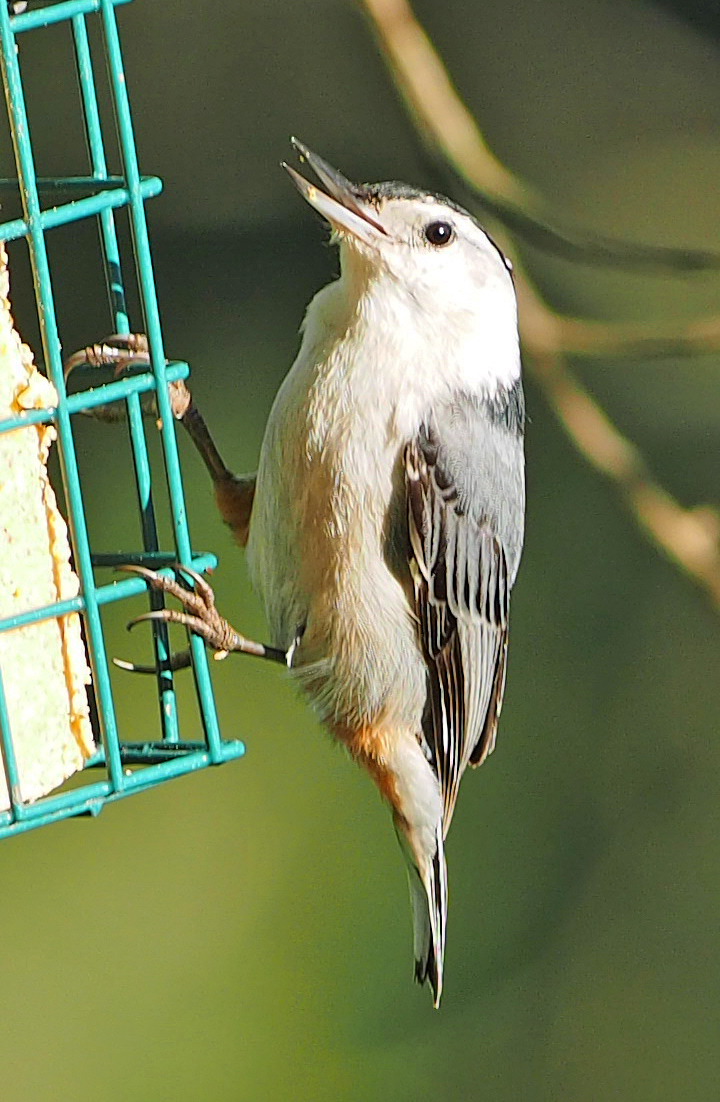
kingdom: Animalia
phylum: Chordata
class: Aves
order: Passeriformes
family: Sittidae
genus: Sitta
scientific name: Sitta carolinensis
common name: White-breasted nuthatch
